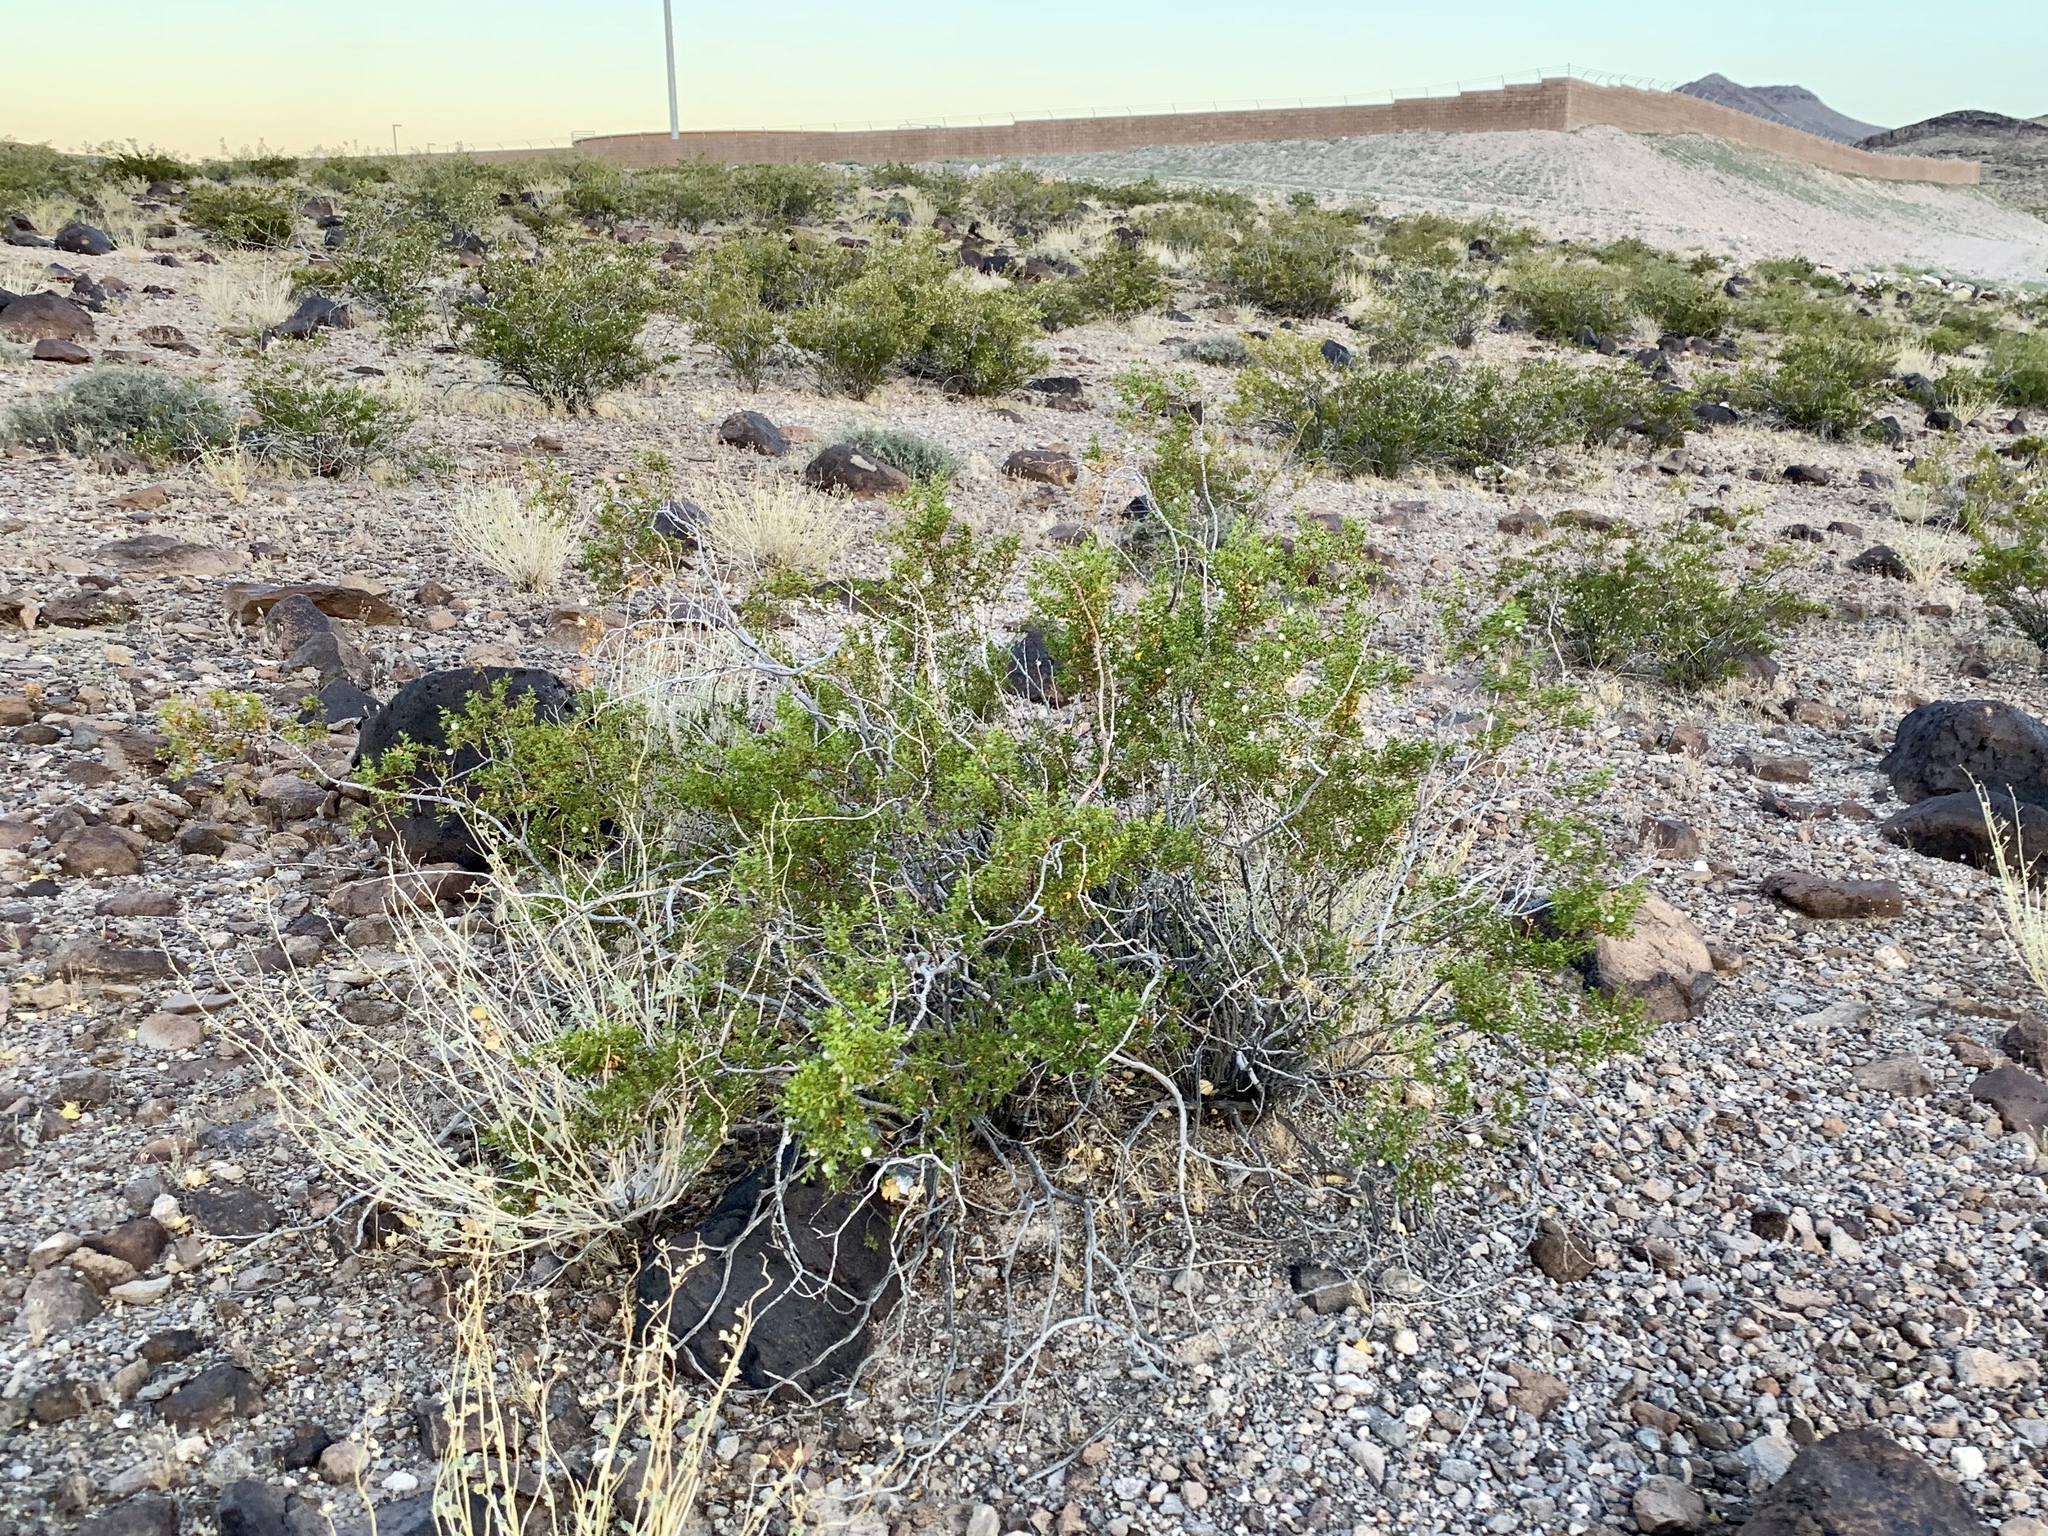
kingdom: Plantae
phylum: Tracheophyta
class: Magnoliopsida
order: Zygophyllales
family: Zygophyllaceae
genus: Larrea
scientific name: Larrea tridentata
